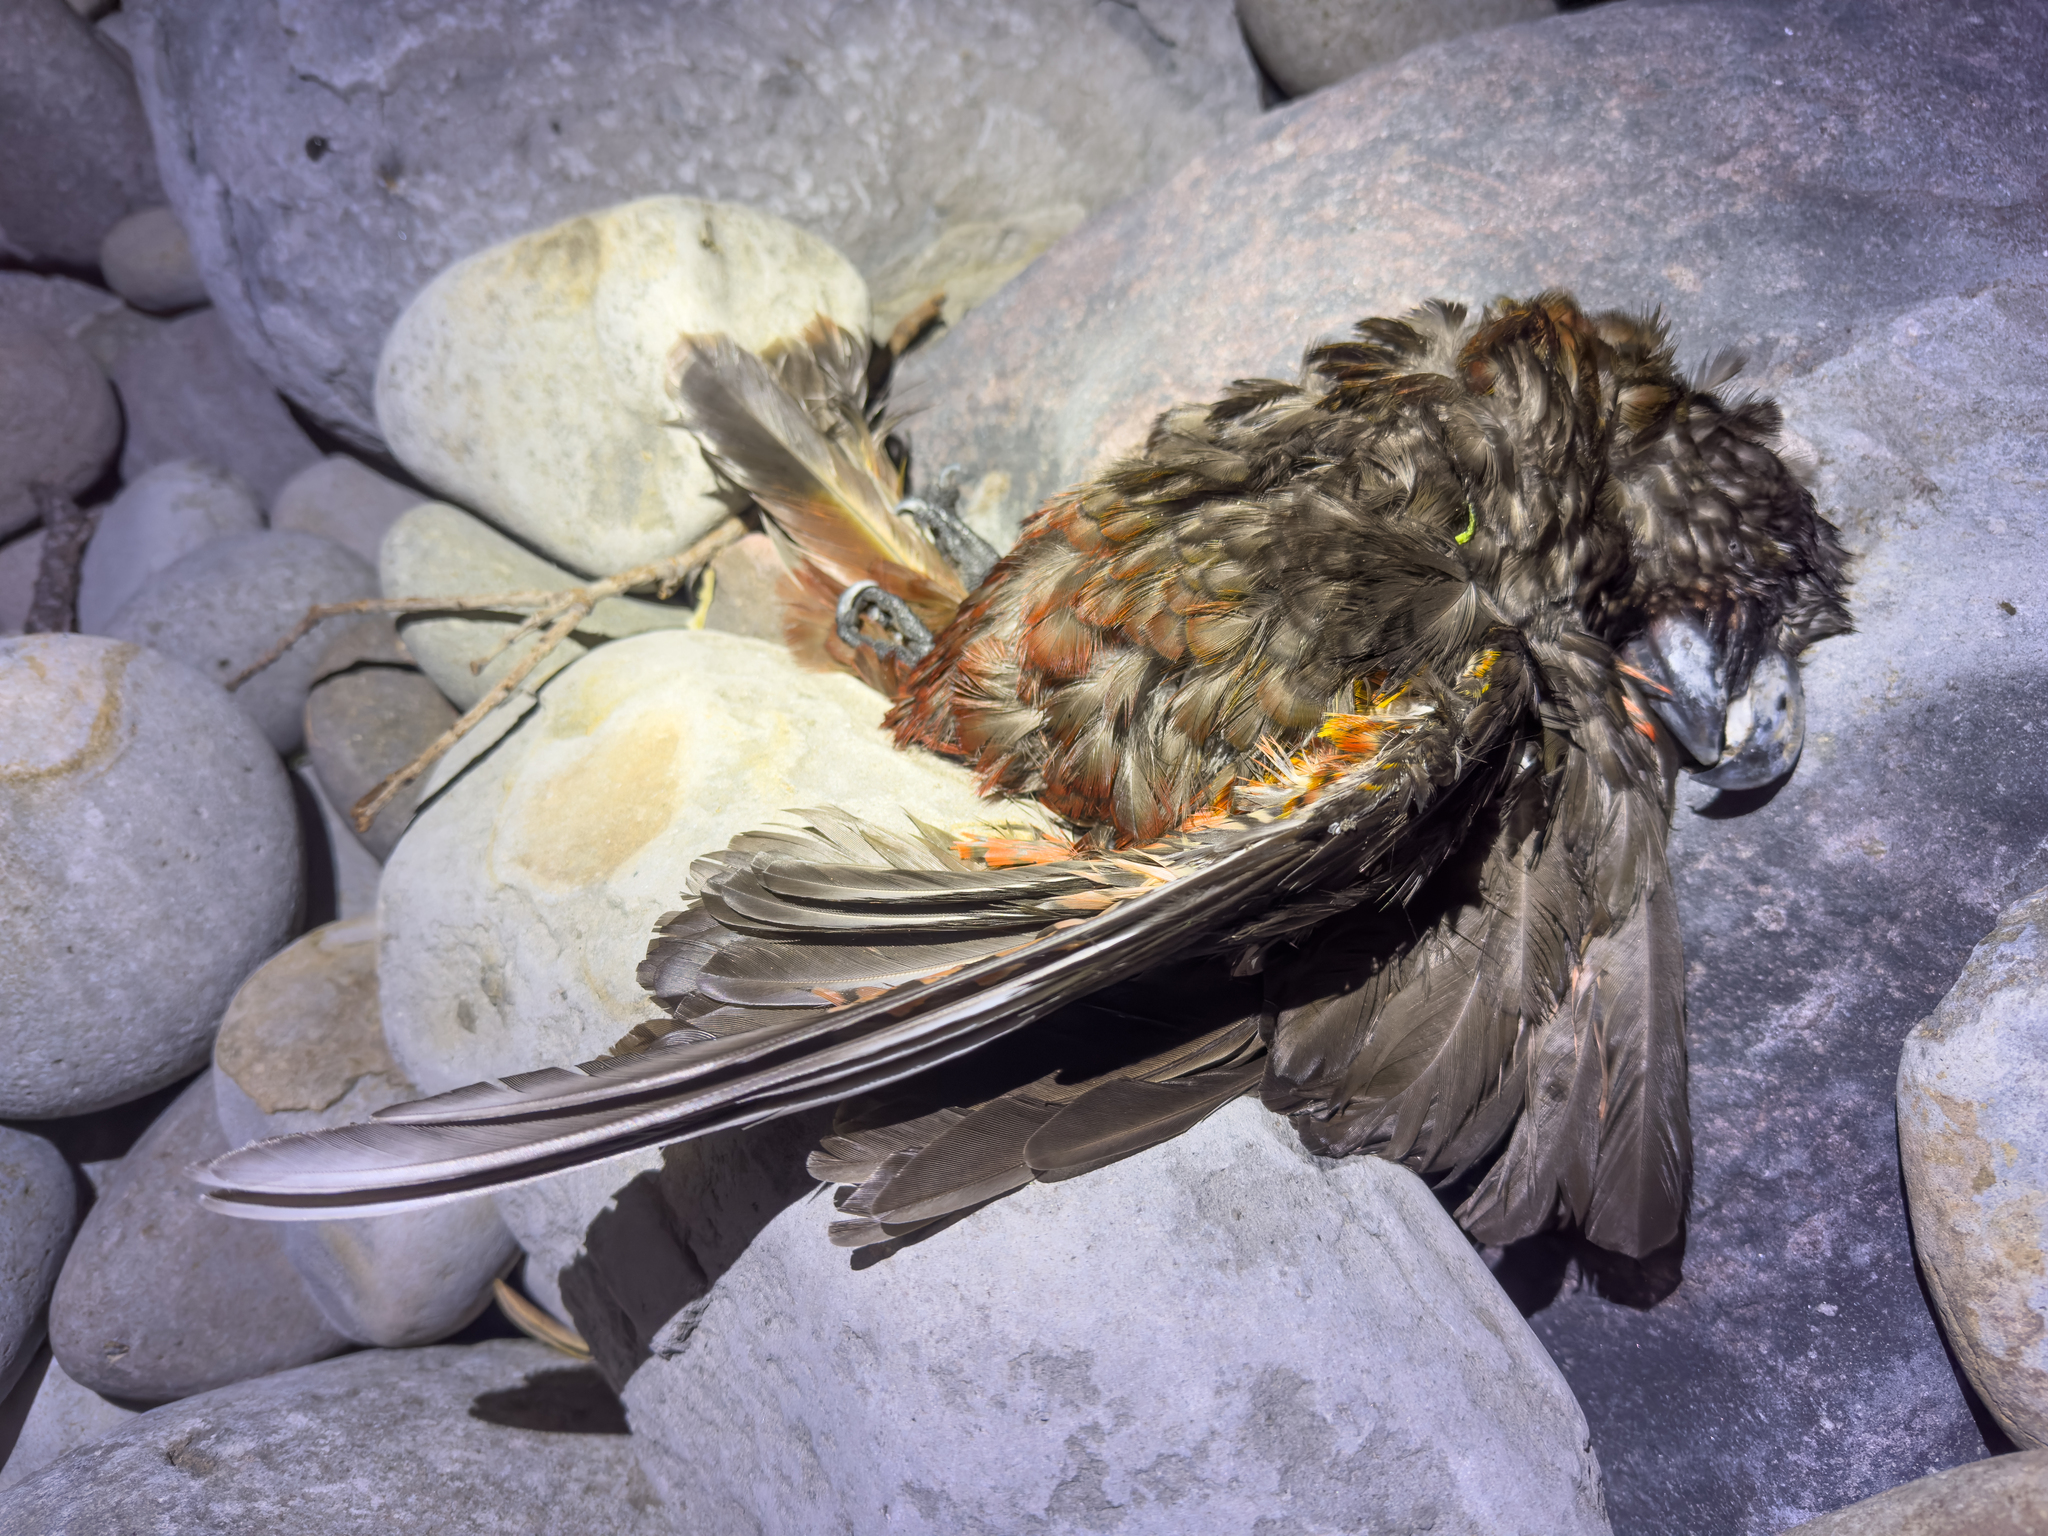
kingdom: Animalia
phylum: Chordata
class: Aves
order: Psittaciformes
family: Psittacidae
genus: Nestor
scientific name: Nestor meridionalis
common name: New zealand kaka
